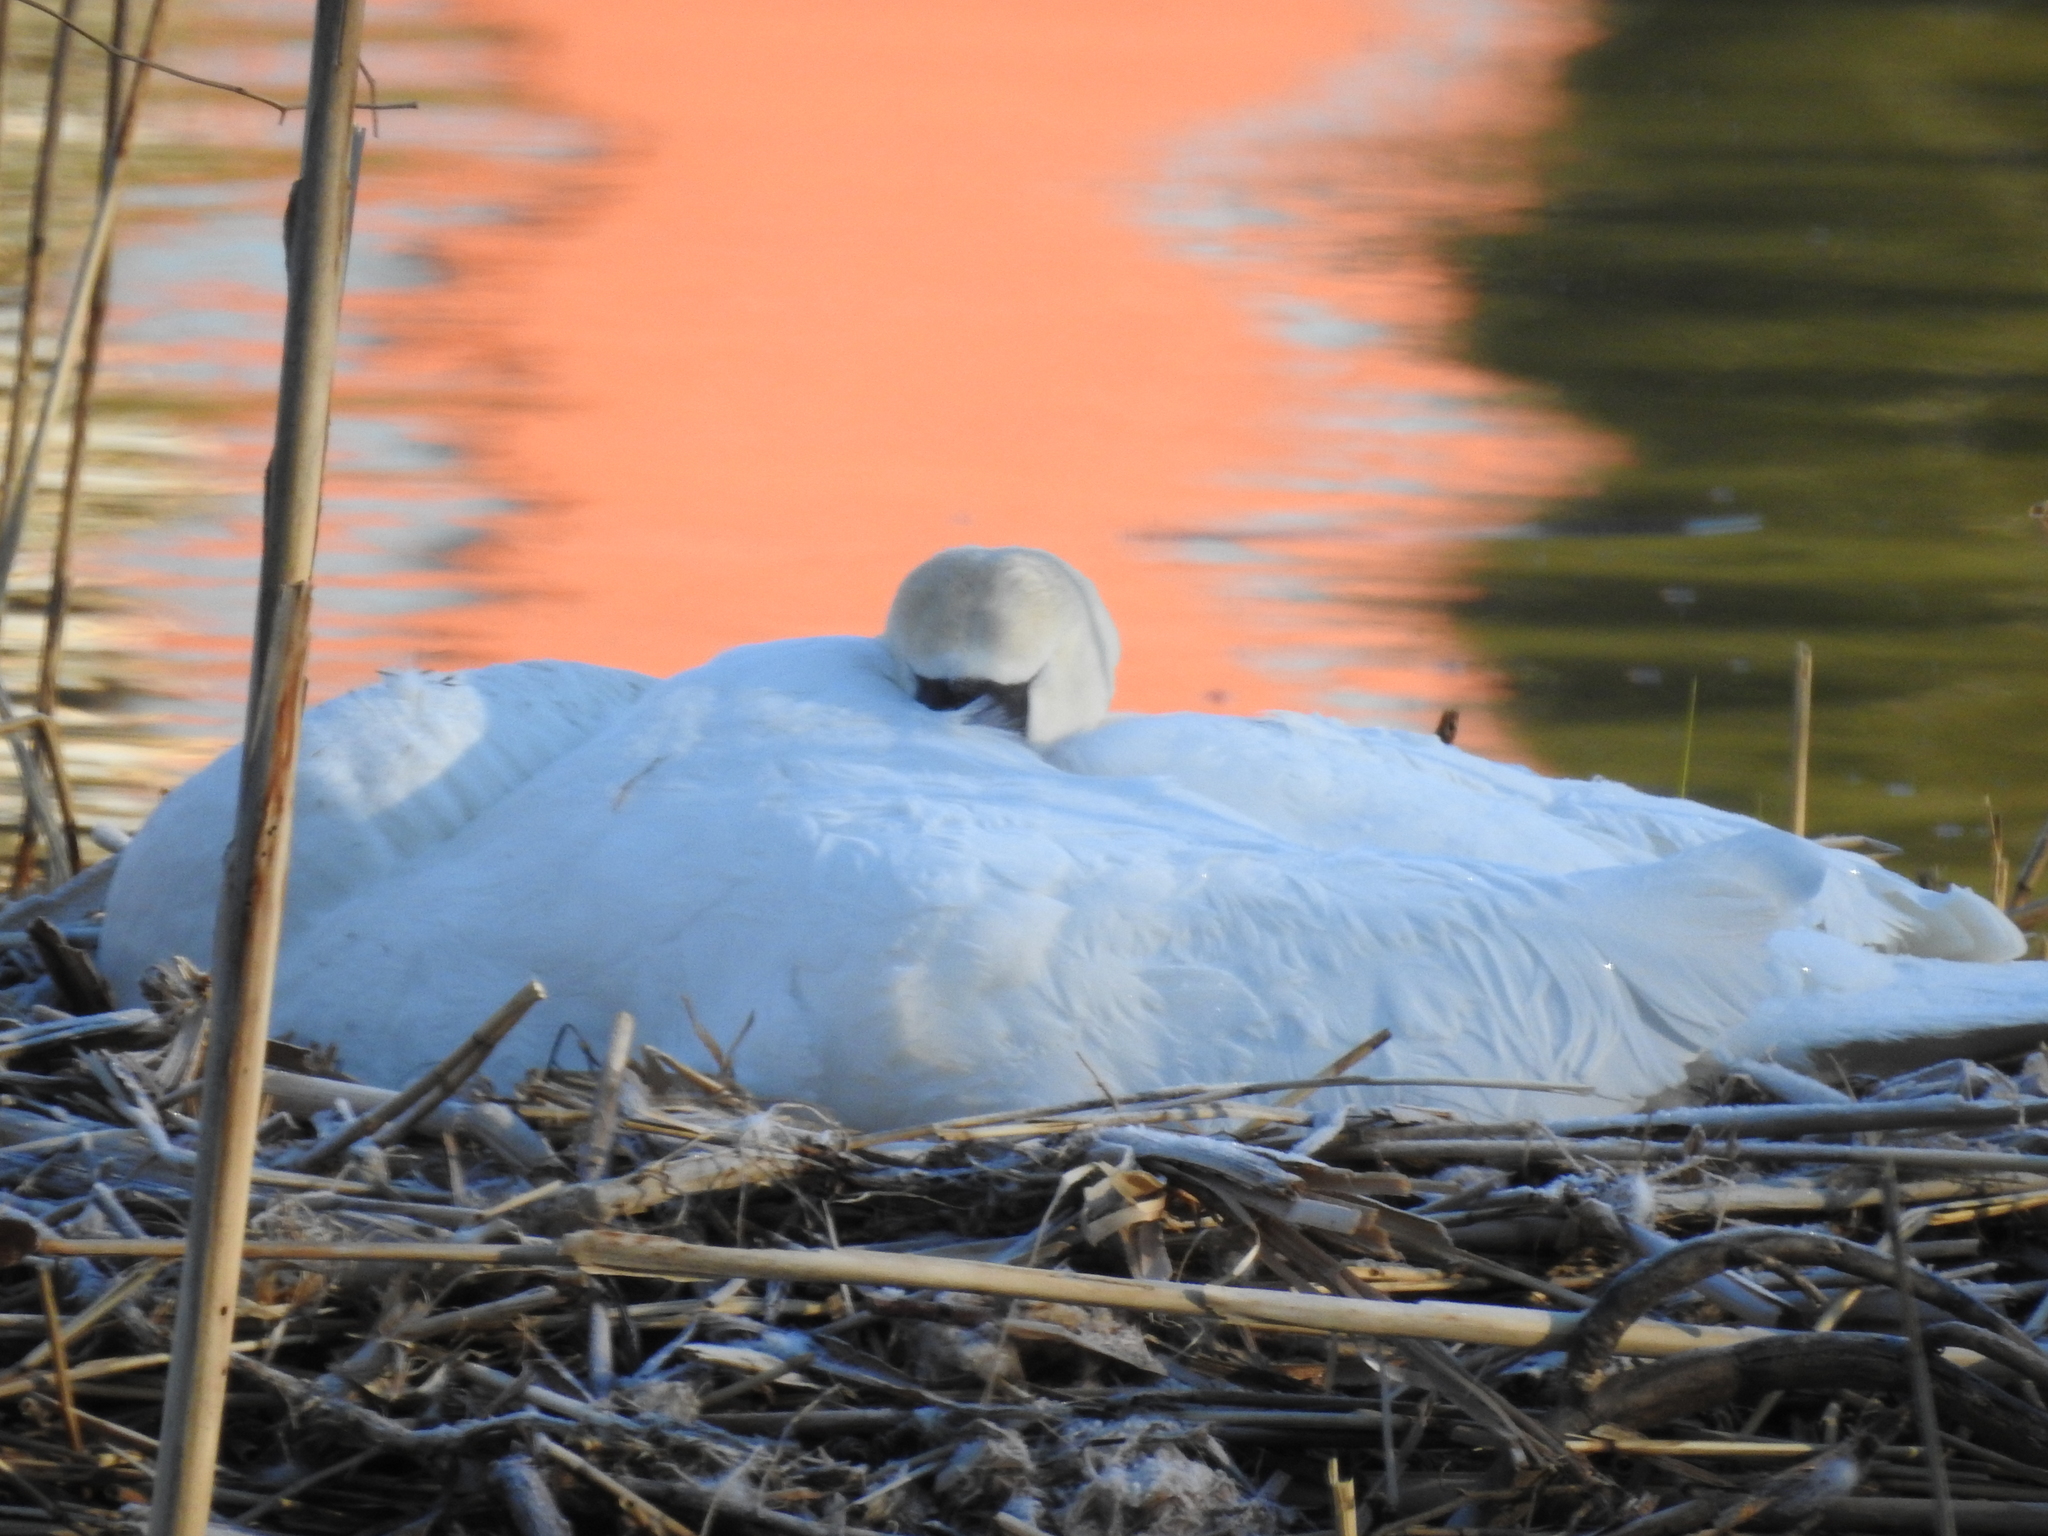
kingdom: Animalia
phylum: Chordata
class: Aves
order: Anseriformes
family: Anatidae
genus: Cygnus
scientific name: Cygnus olor
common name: Mute swan
